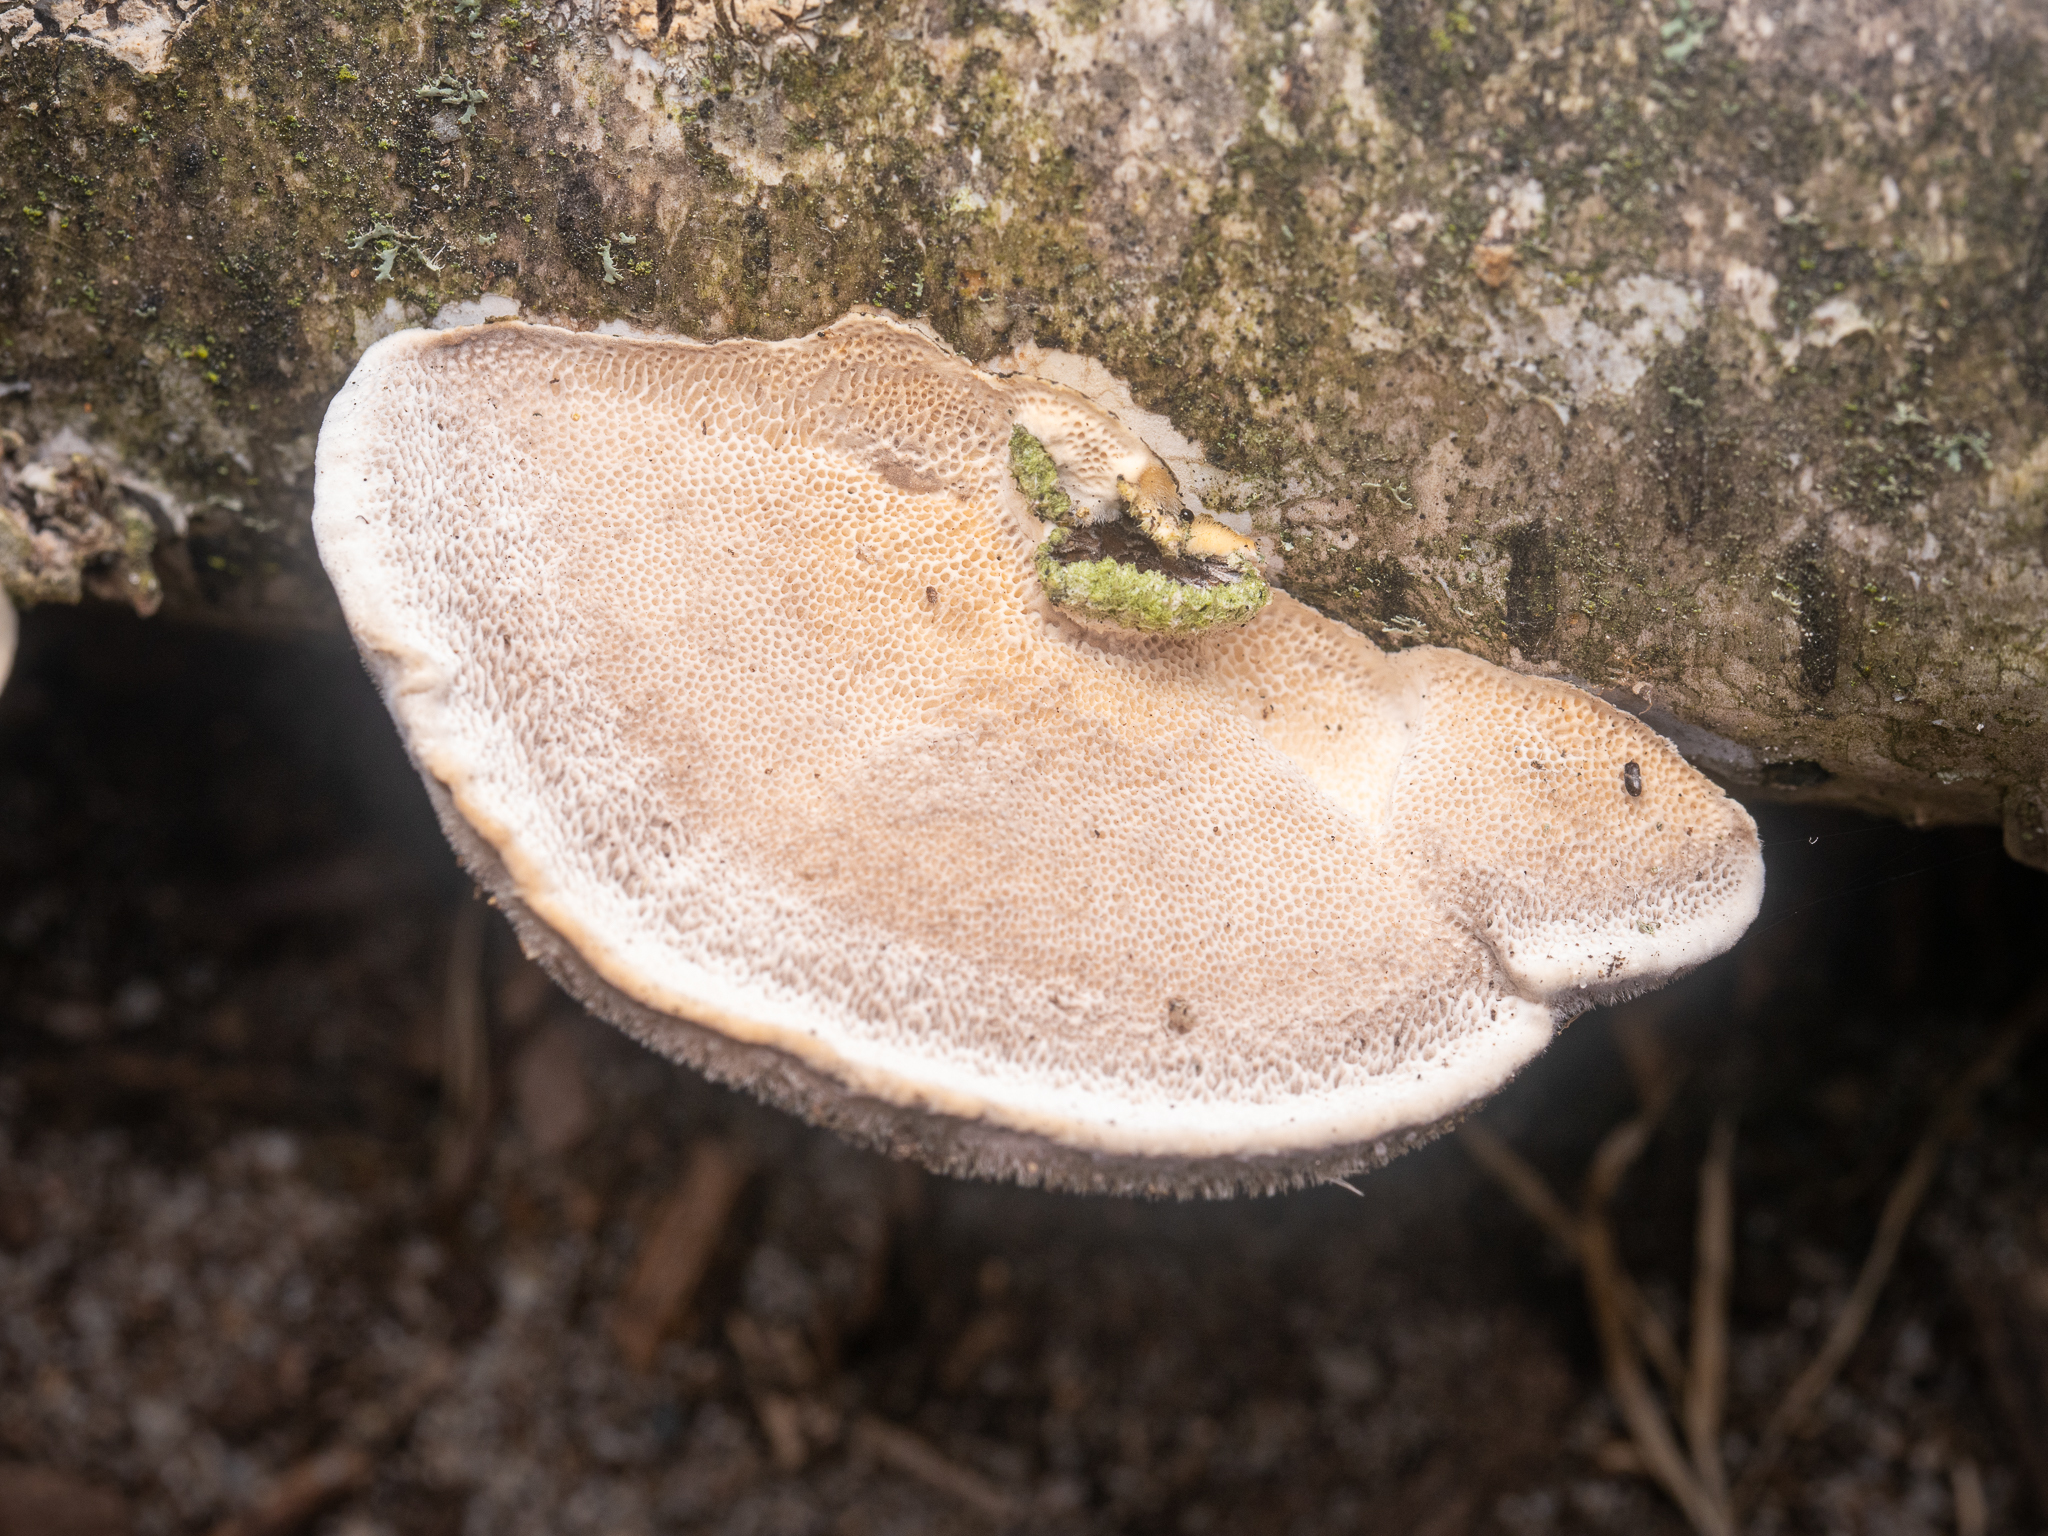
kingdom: Fungi
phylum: Basidiomycota
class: Agaricomycetes
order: Polyporales
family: Polyporaceae
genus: Trametes
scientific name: Trametes hirsuta
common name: Hairy bracket
